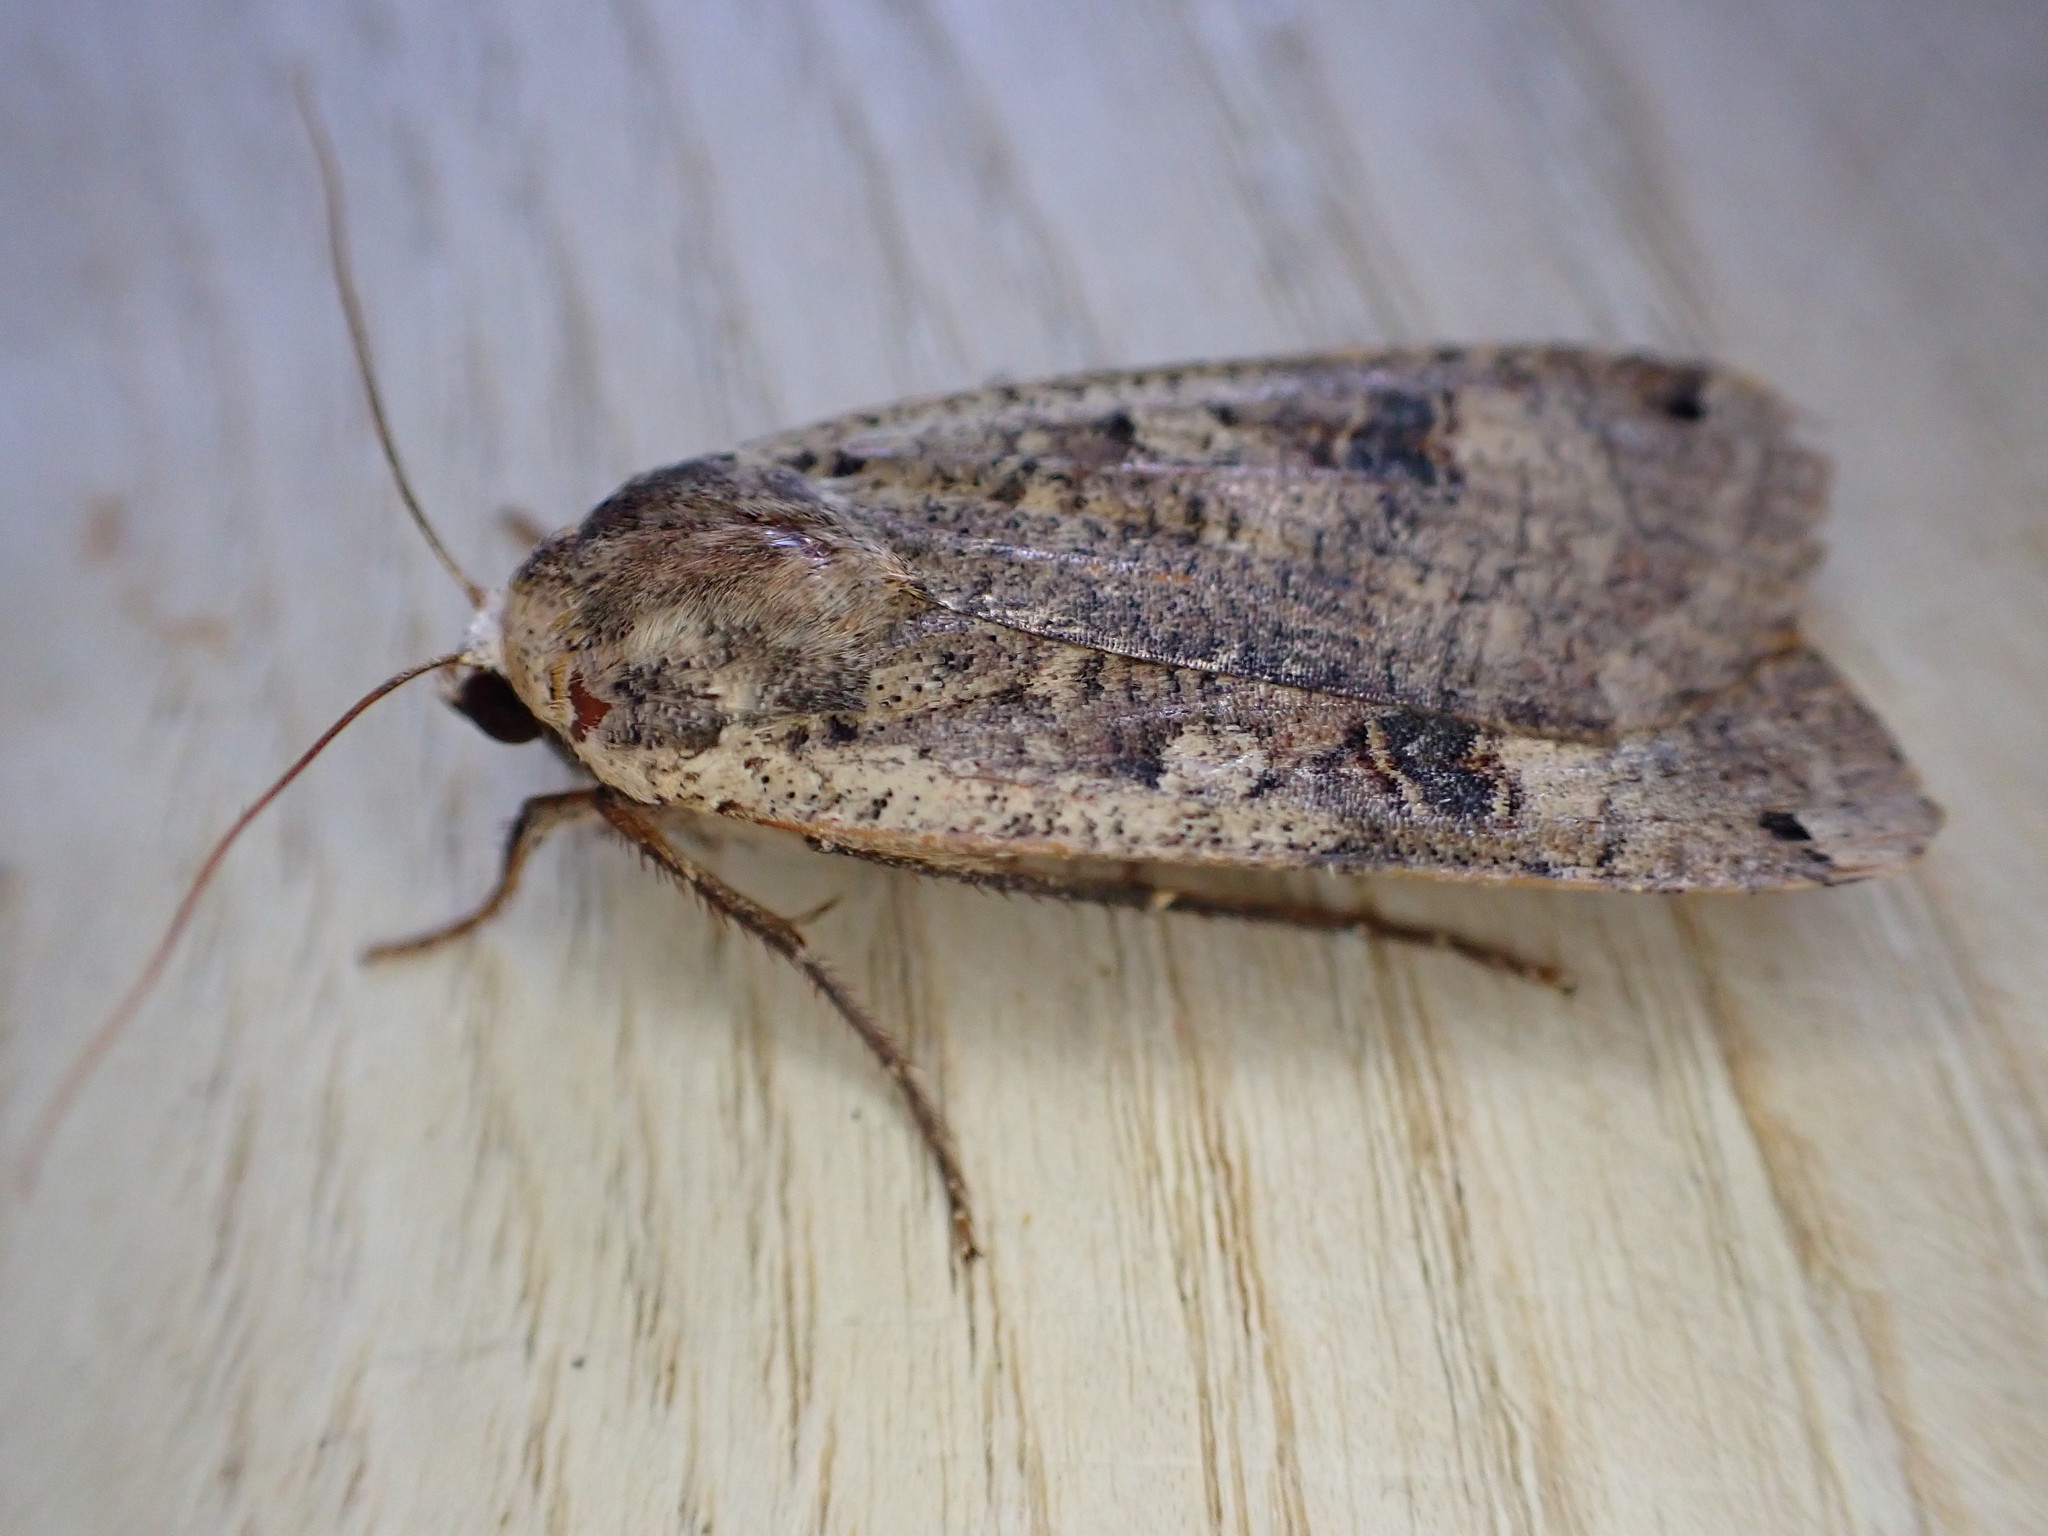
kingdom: Animalia
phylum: Arthropoda
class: Insecta
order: Lepidoptera
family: Noctuidae
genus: Noctua
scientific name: Noctua pronuba
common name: Large yellow underwing
